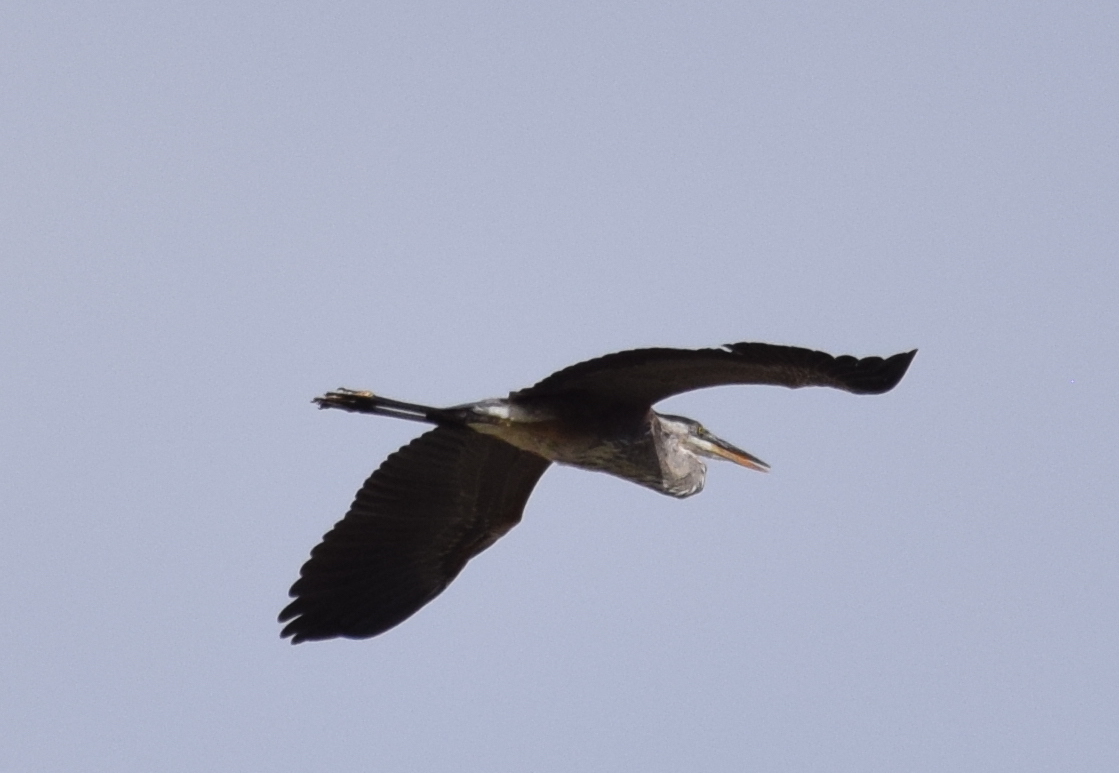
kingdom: Animalia
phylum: Chordata
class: Aves
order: Pelecaniformes
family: Ardeidae
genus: Ardea
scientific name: Ardea herodias
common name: Great blue heron
